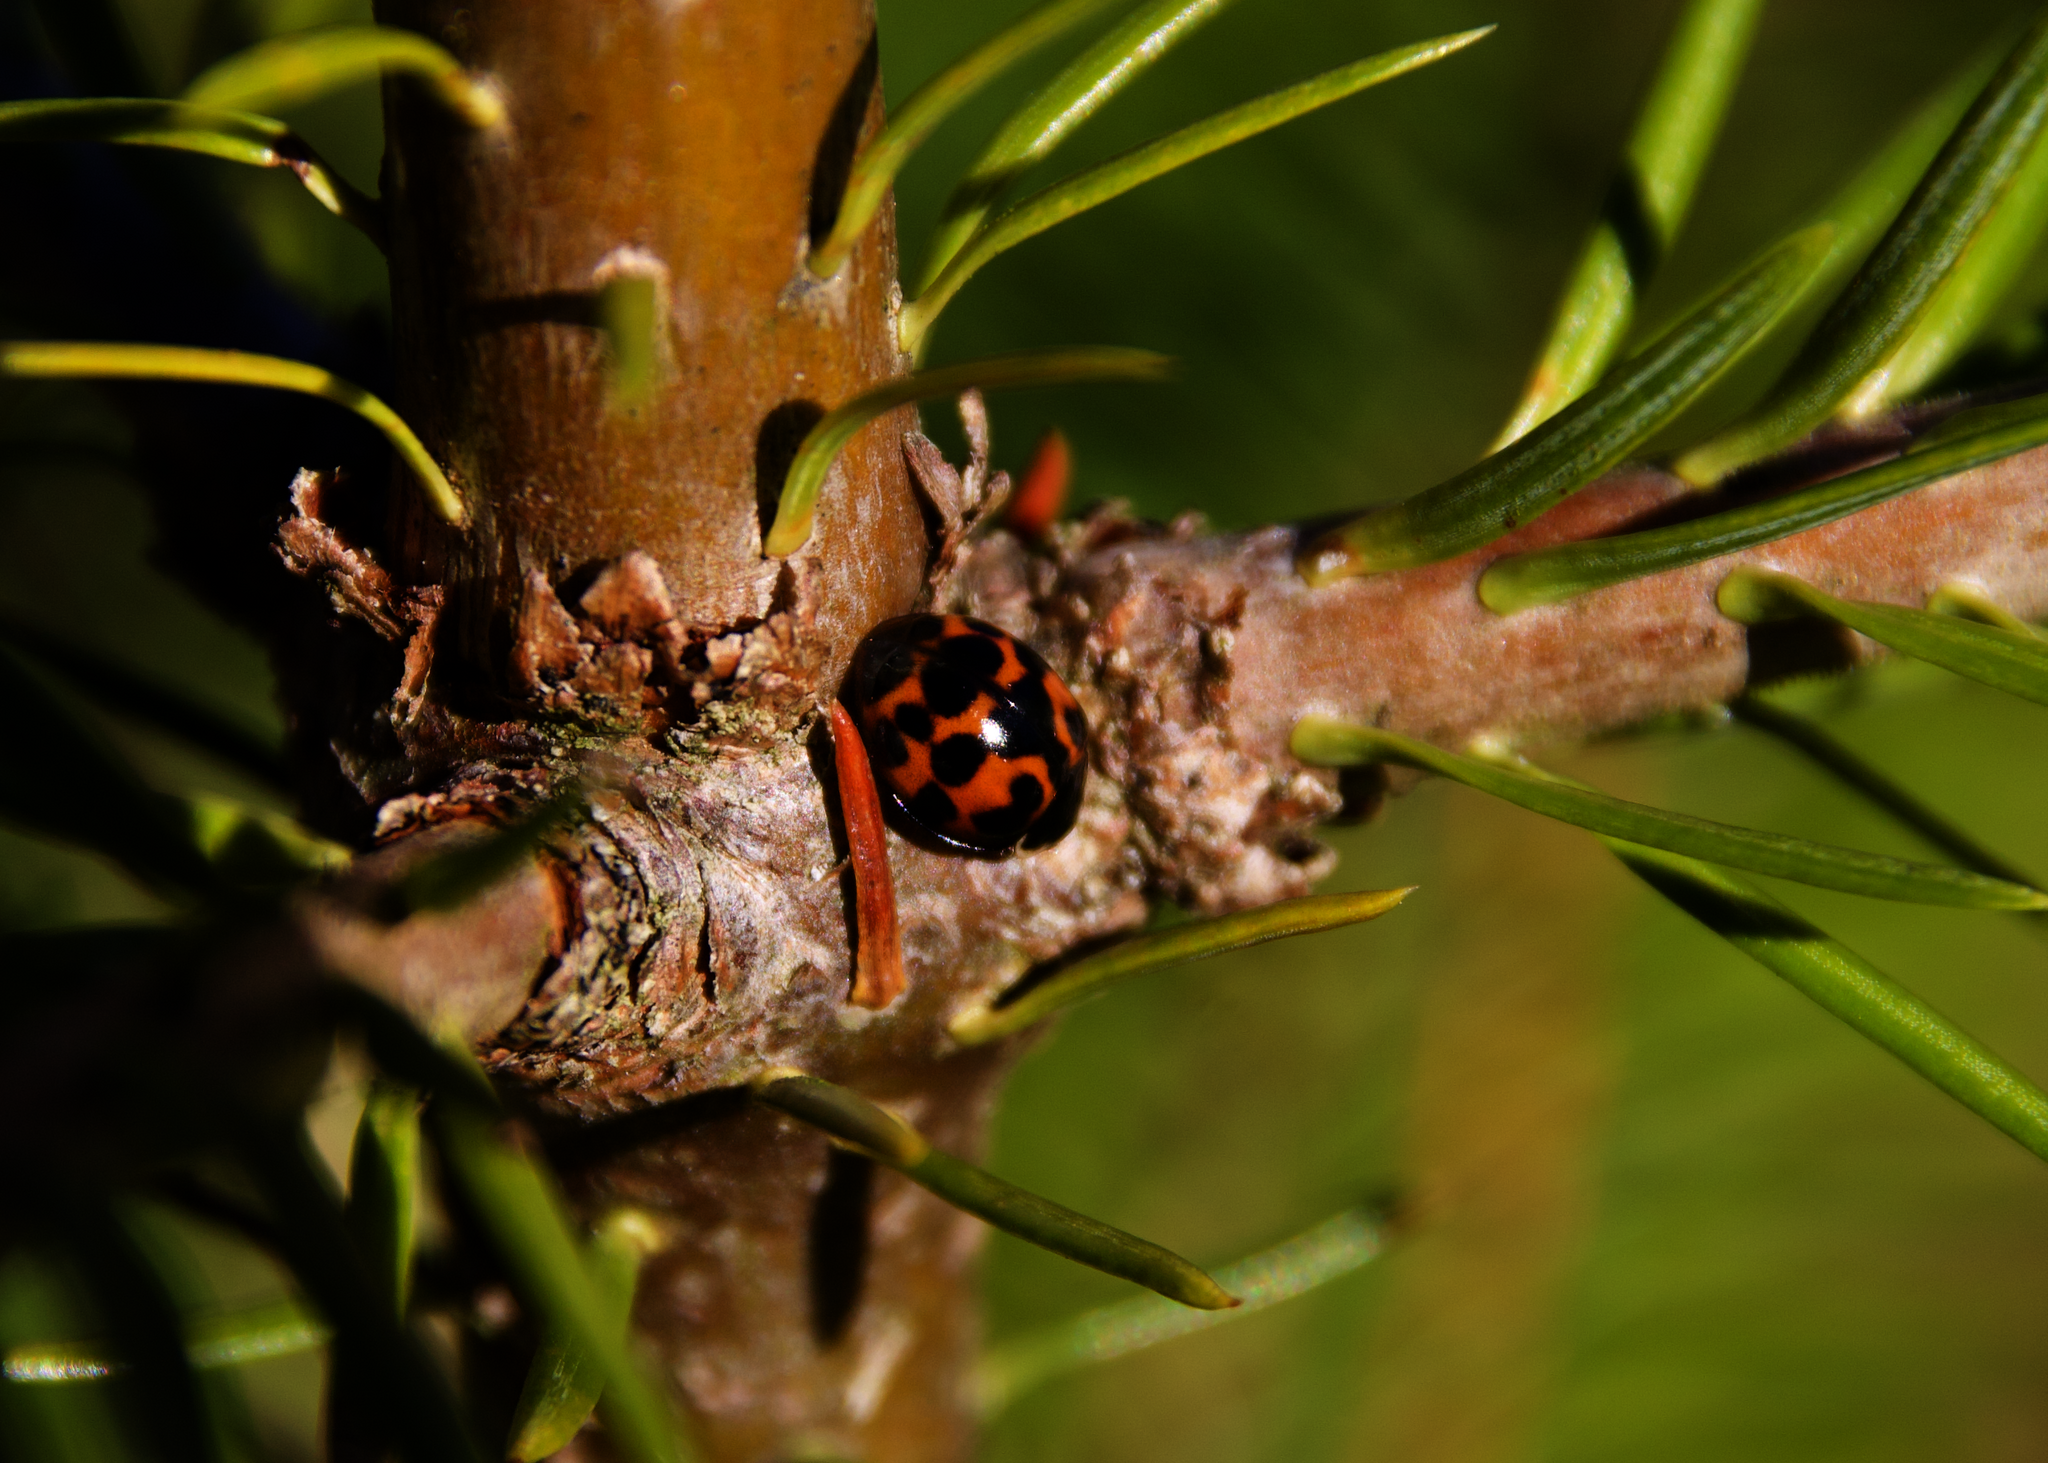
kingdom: Animalia
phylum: Arthropoda
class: Insecta
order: Coleoptera
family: Coccinellidae
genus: Harmonia
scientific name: Harmonia axyridis
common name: Harlequin ladybird
